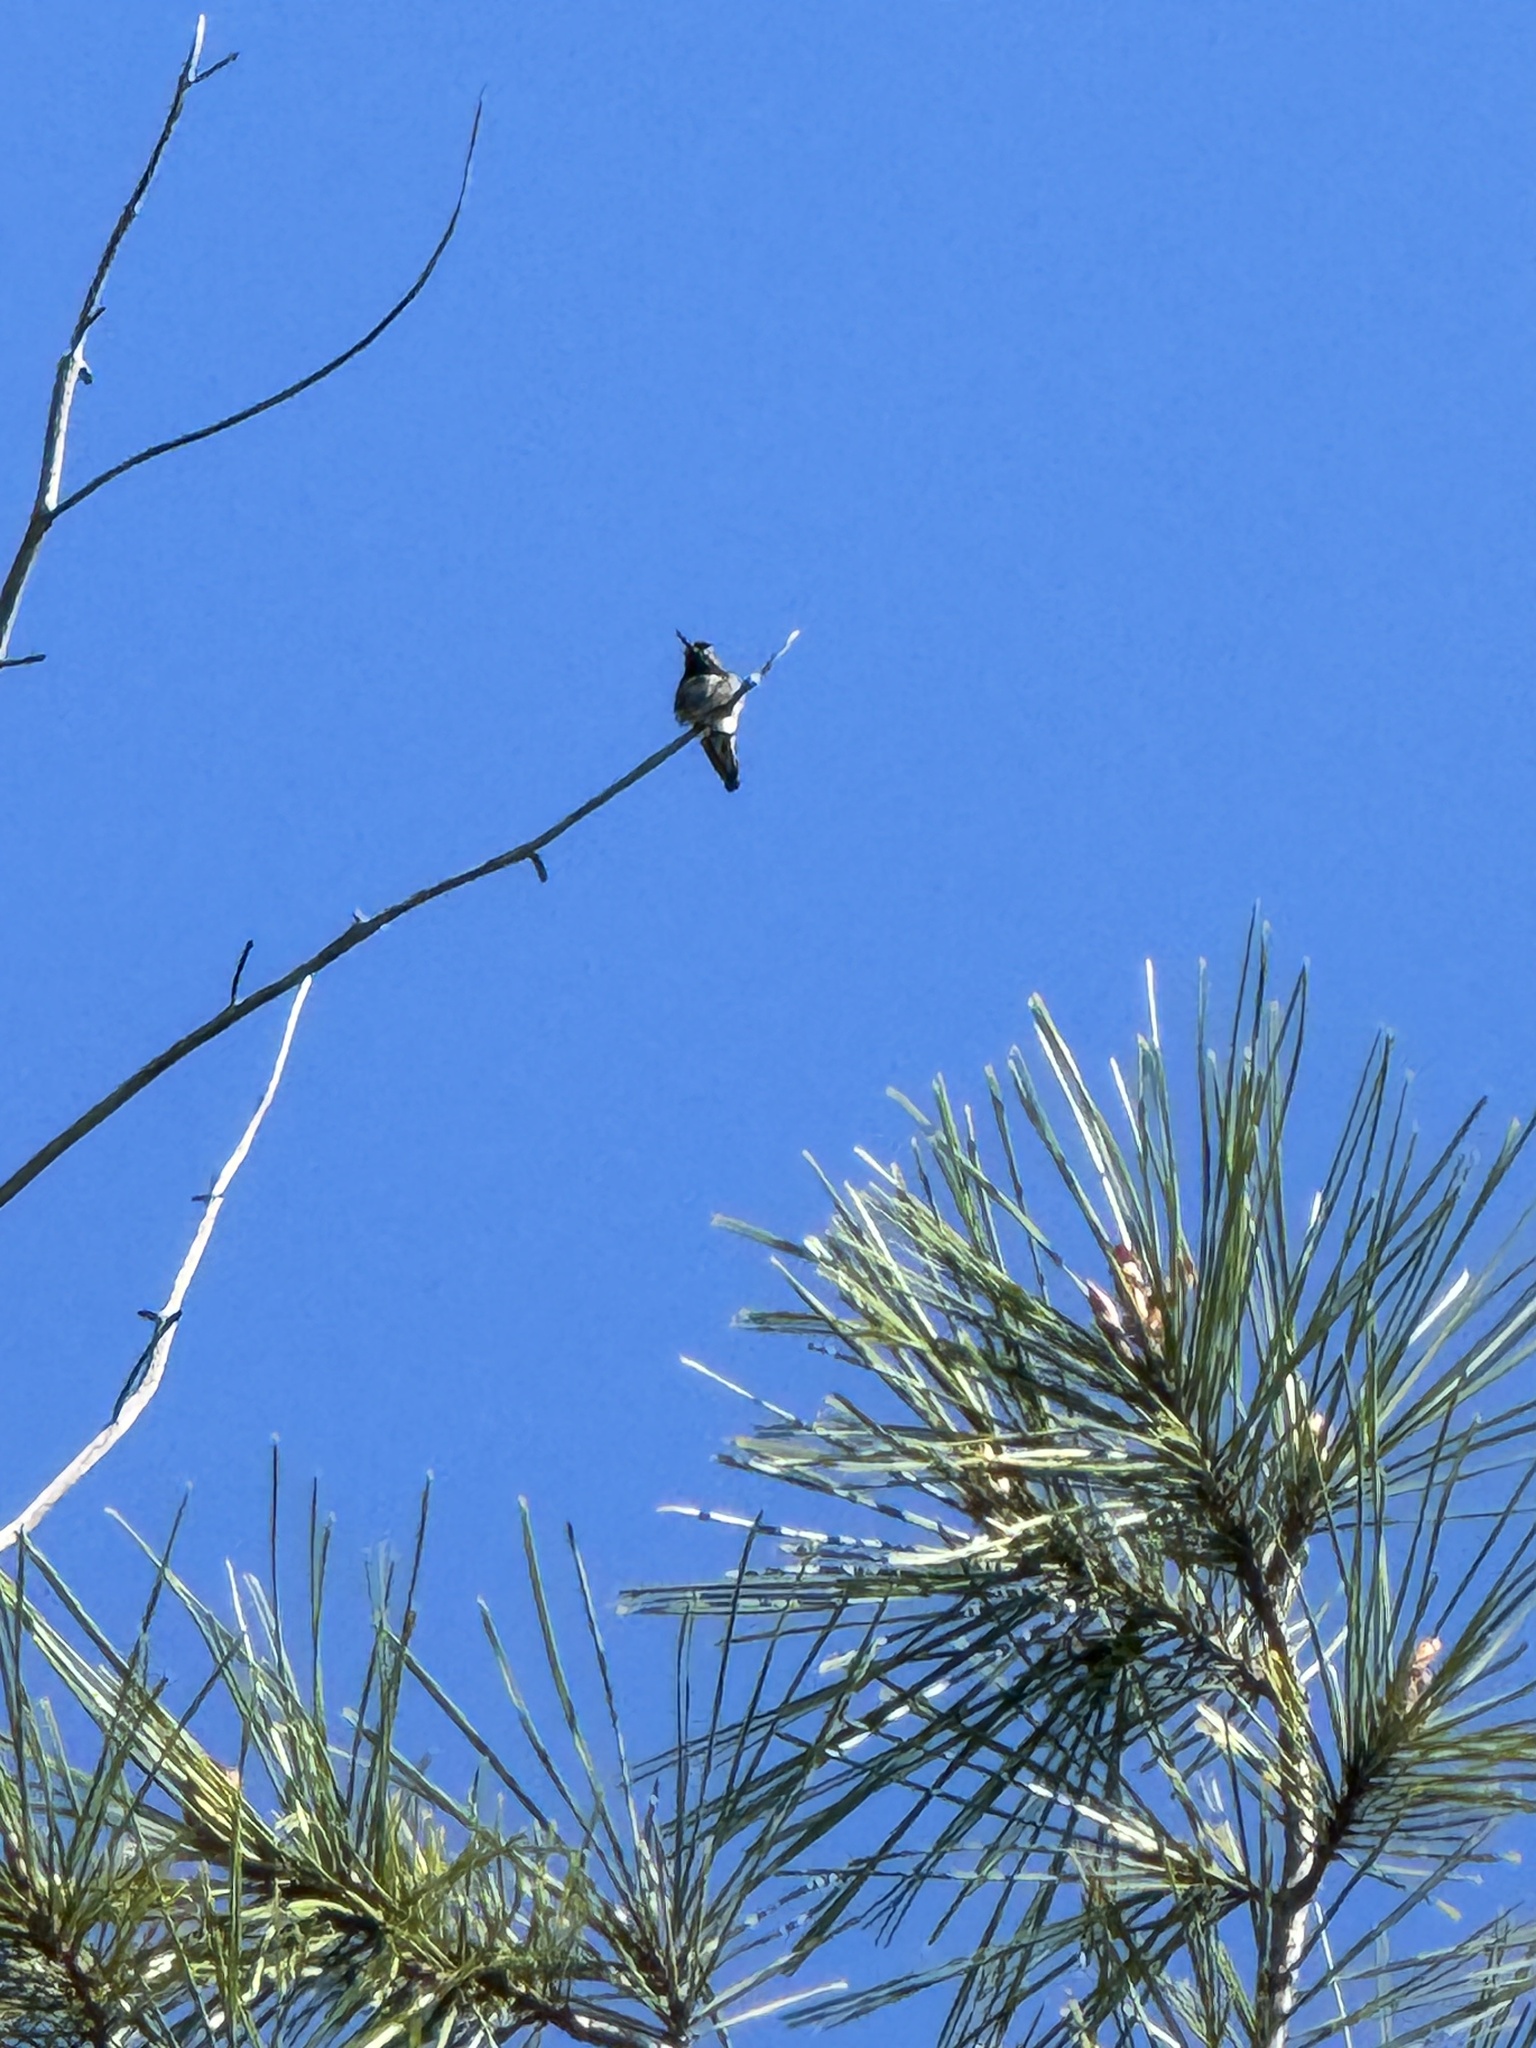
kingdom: Animalia
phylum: Chordata
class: Aves
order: Apodiformes
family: Trochilidae
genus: Calypte
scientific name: Calypte anna
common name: Anna's hummingbird
